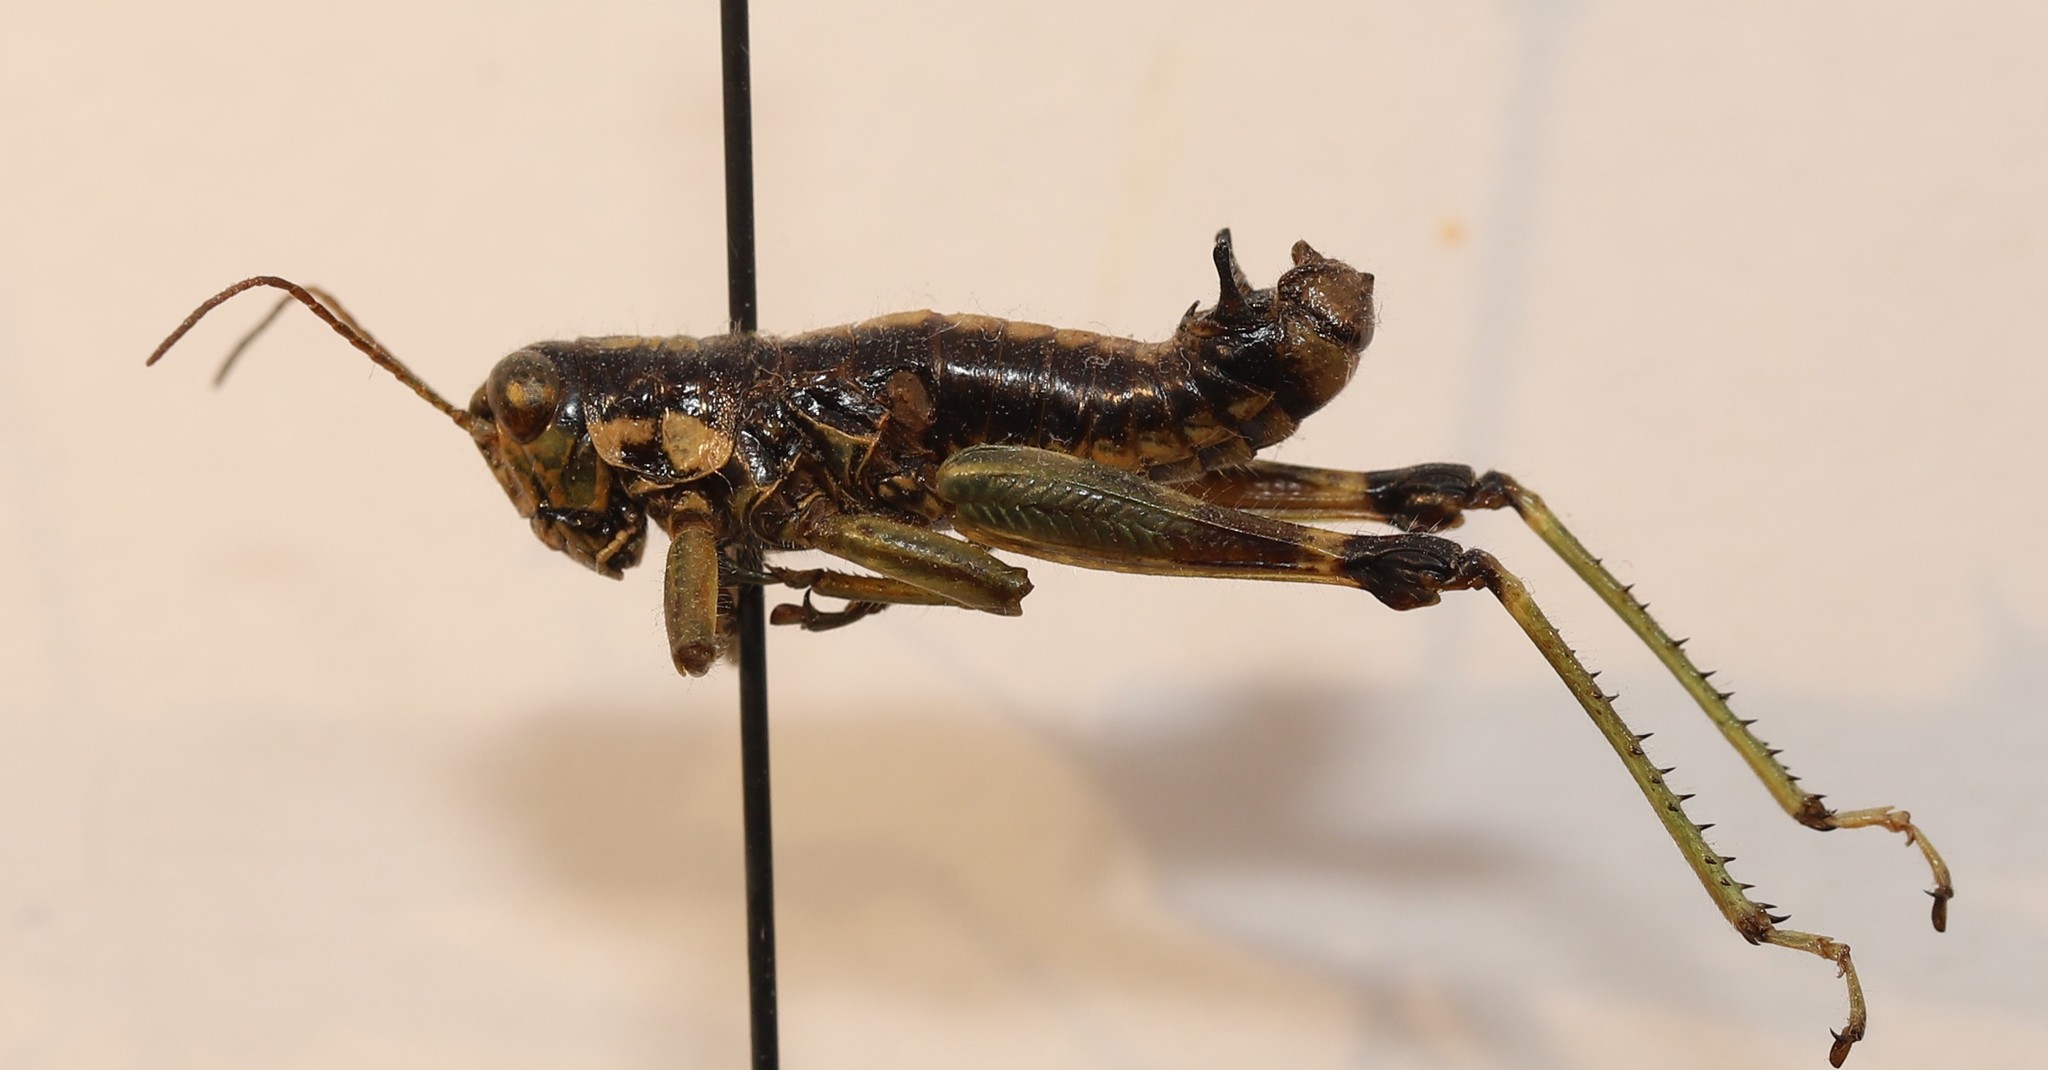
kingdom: Animalia
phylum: Arthropoda
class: Insecta
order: Orthoptera
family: Acrididae
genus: Booneacris
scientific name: Booneacris glacialis
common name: Wingless mountain grasshopper
